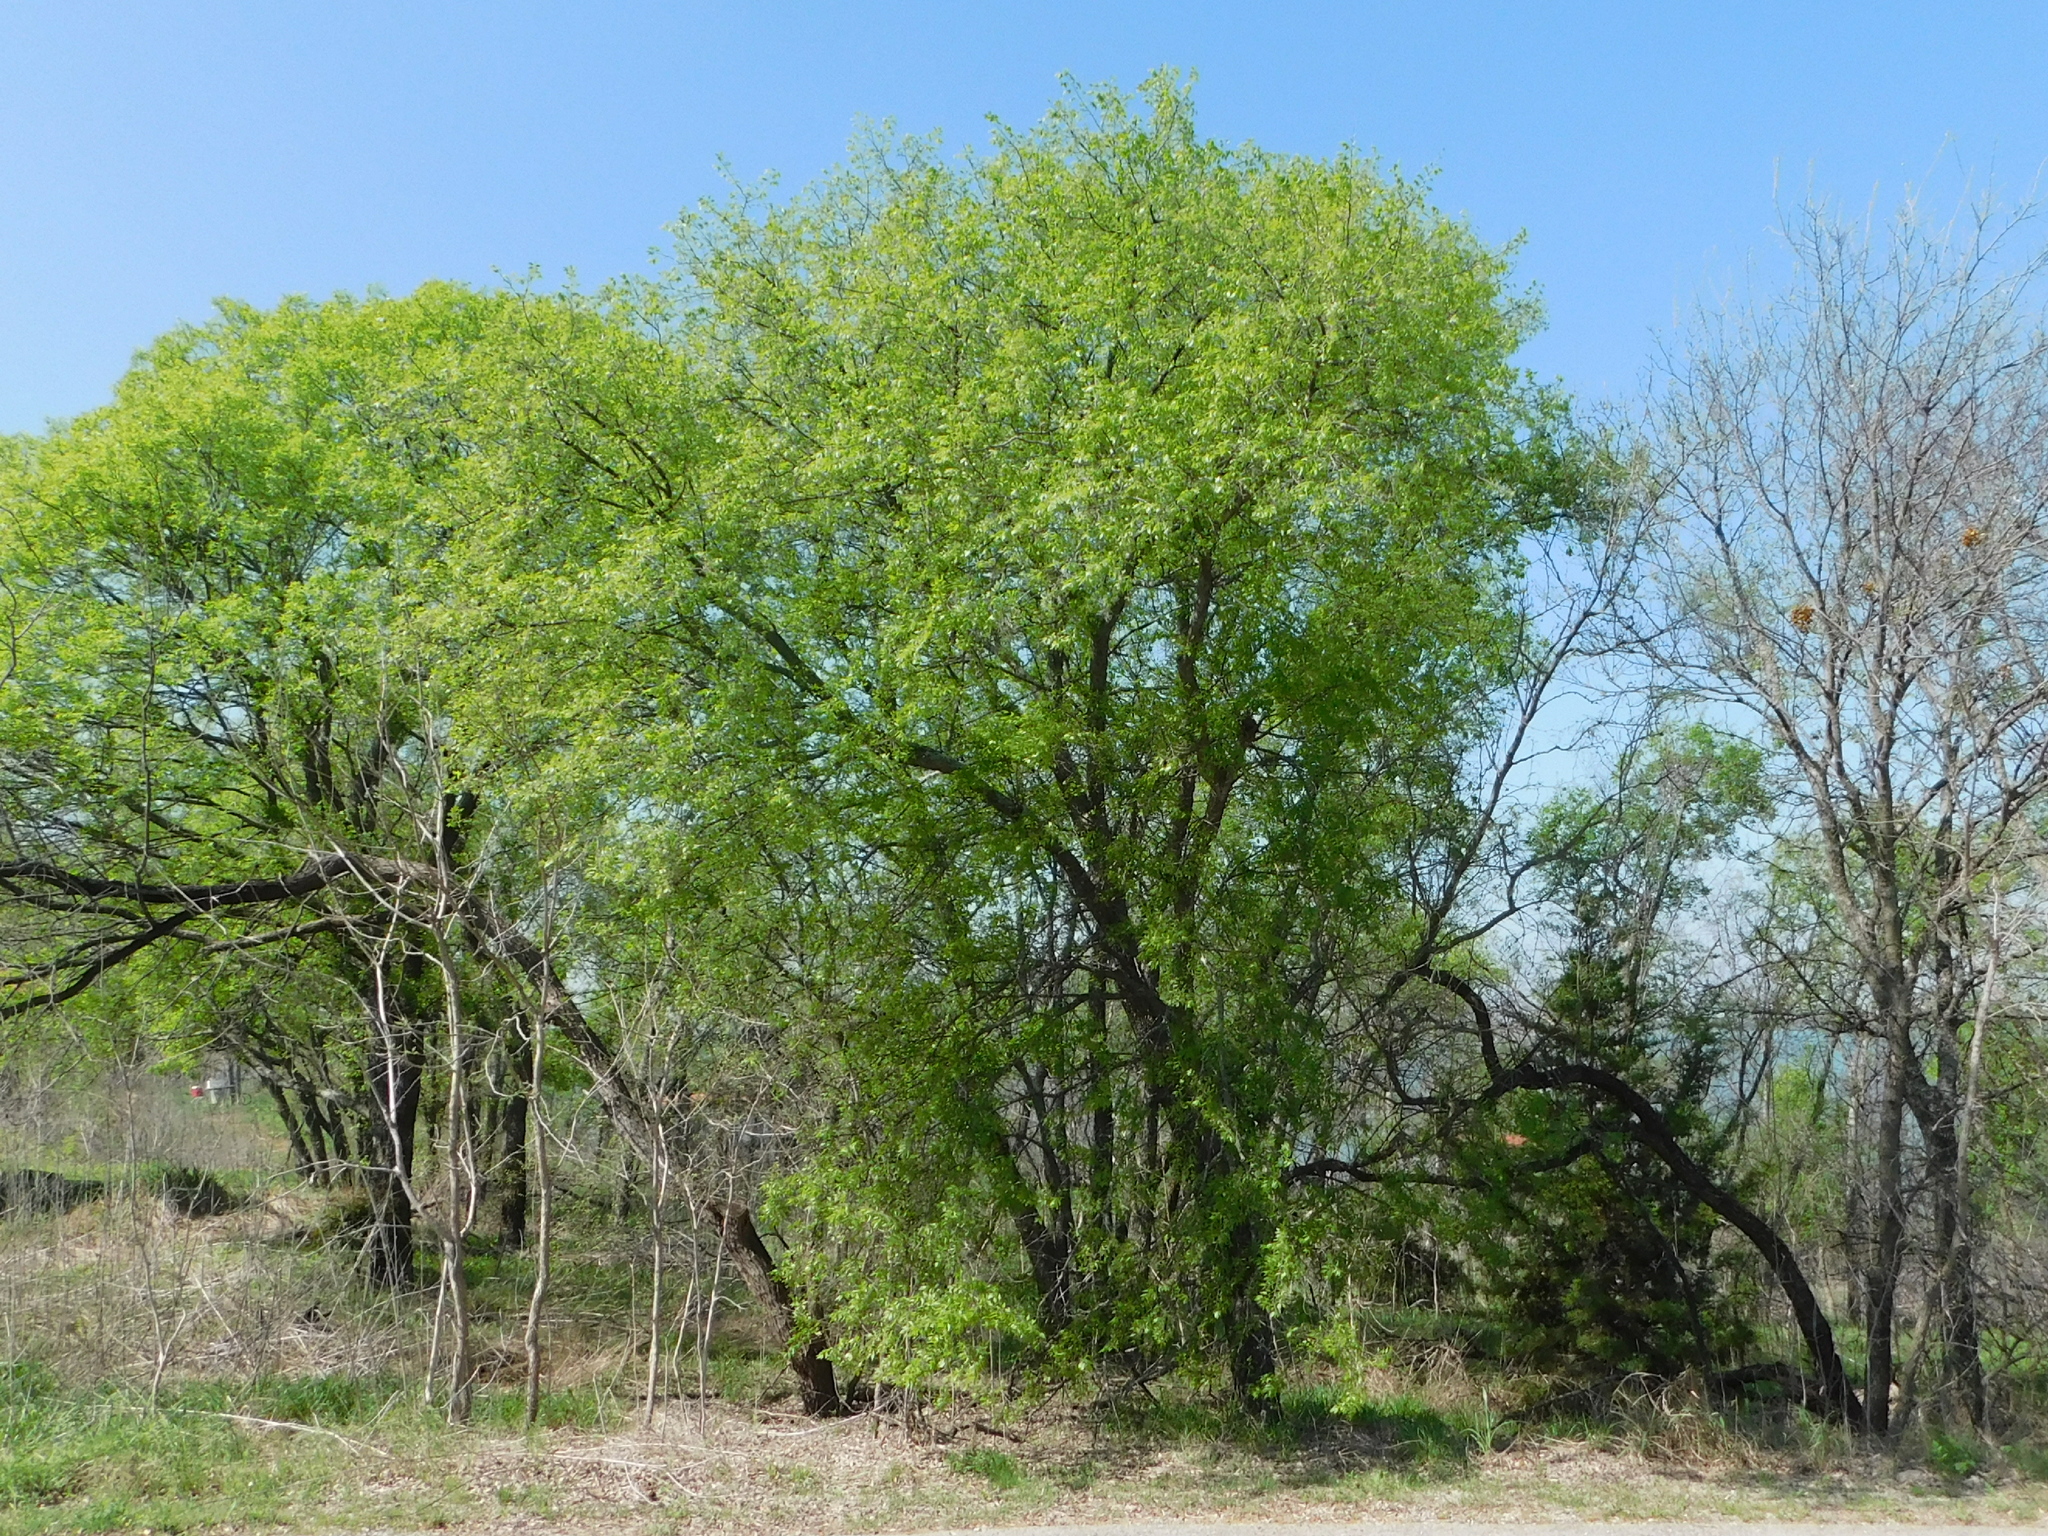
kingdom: Plantae
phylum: Tracheophyta
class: Magnoliopsida
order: Rosales
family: Cannabaceae
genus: Celtis
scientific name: Celtis laevigata
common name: Sugarberry
